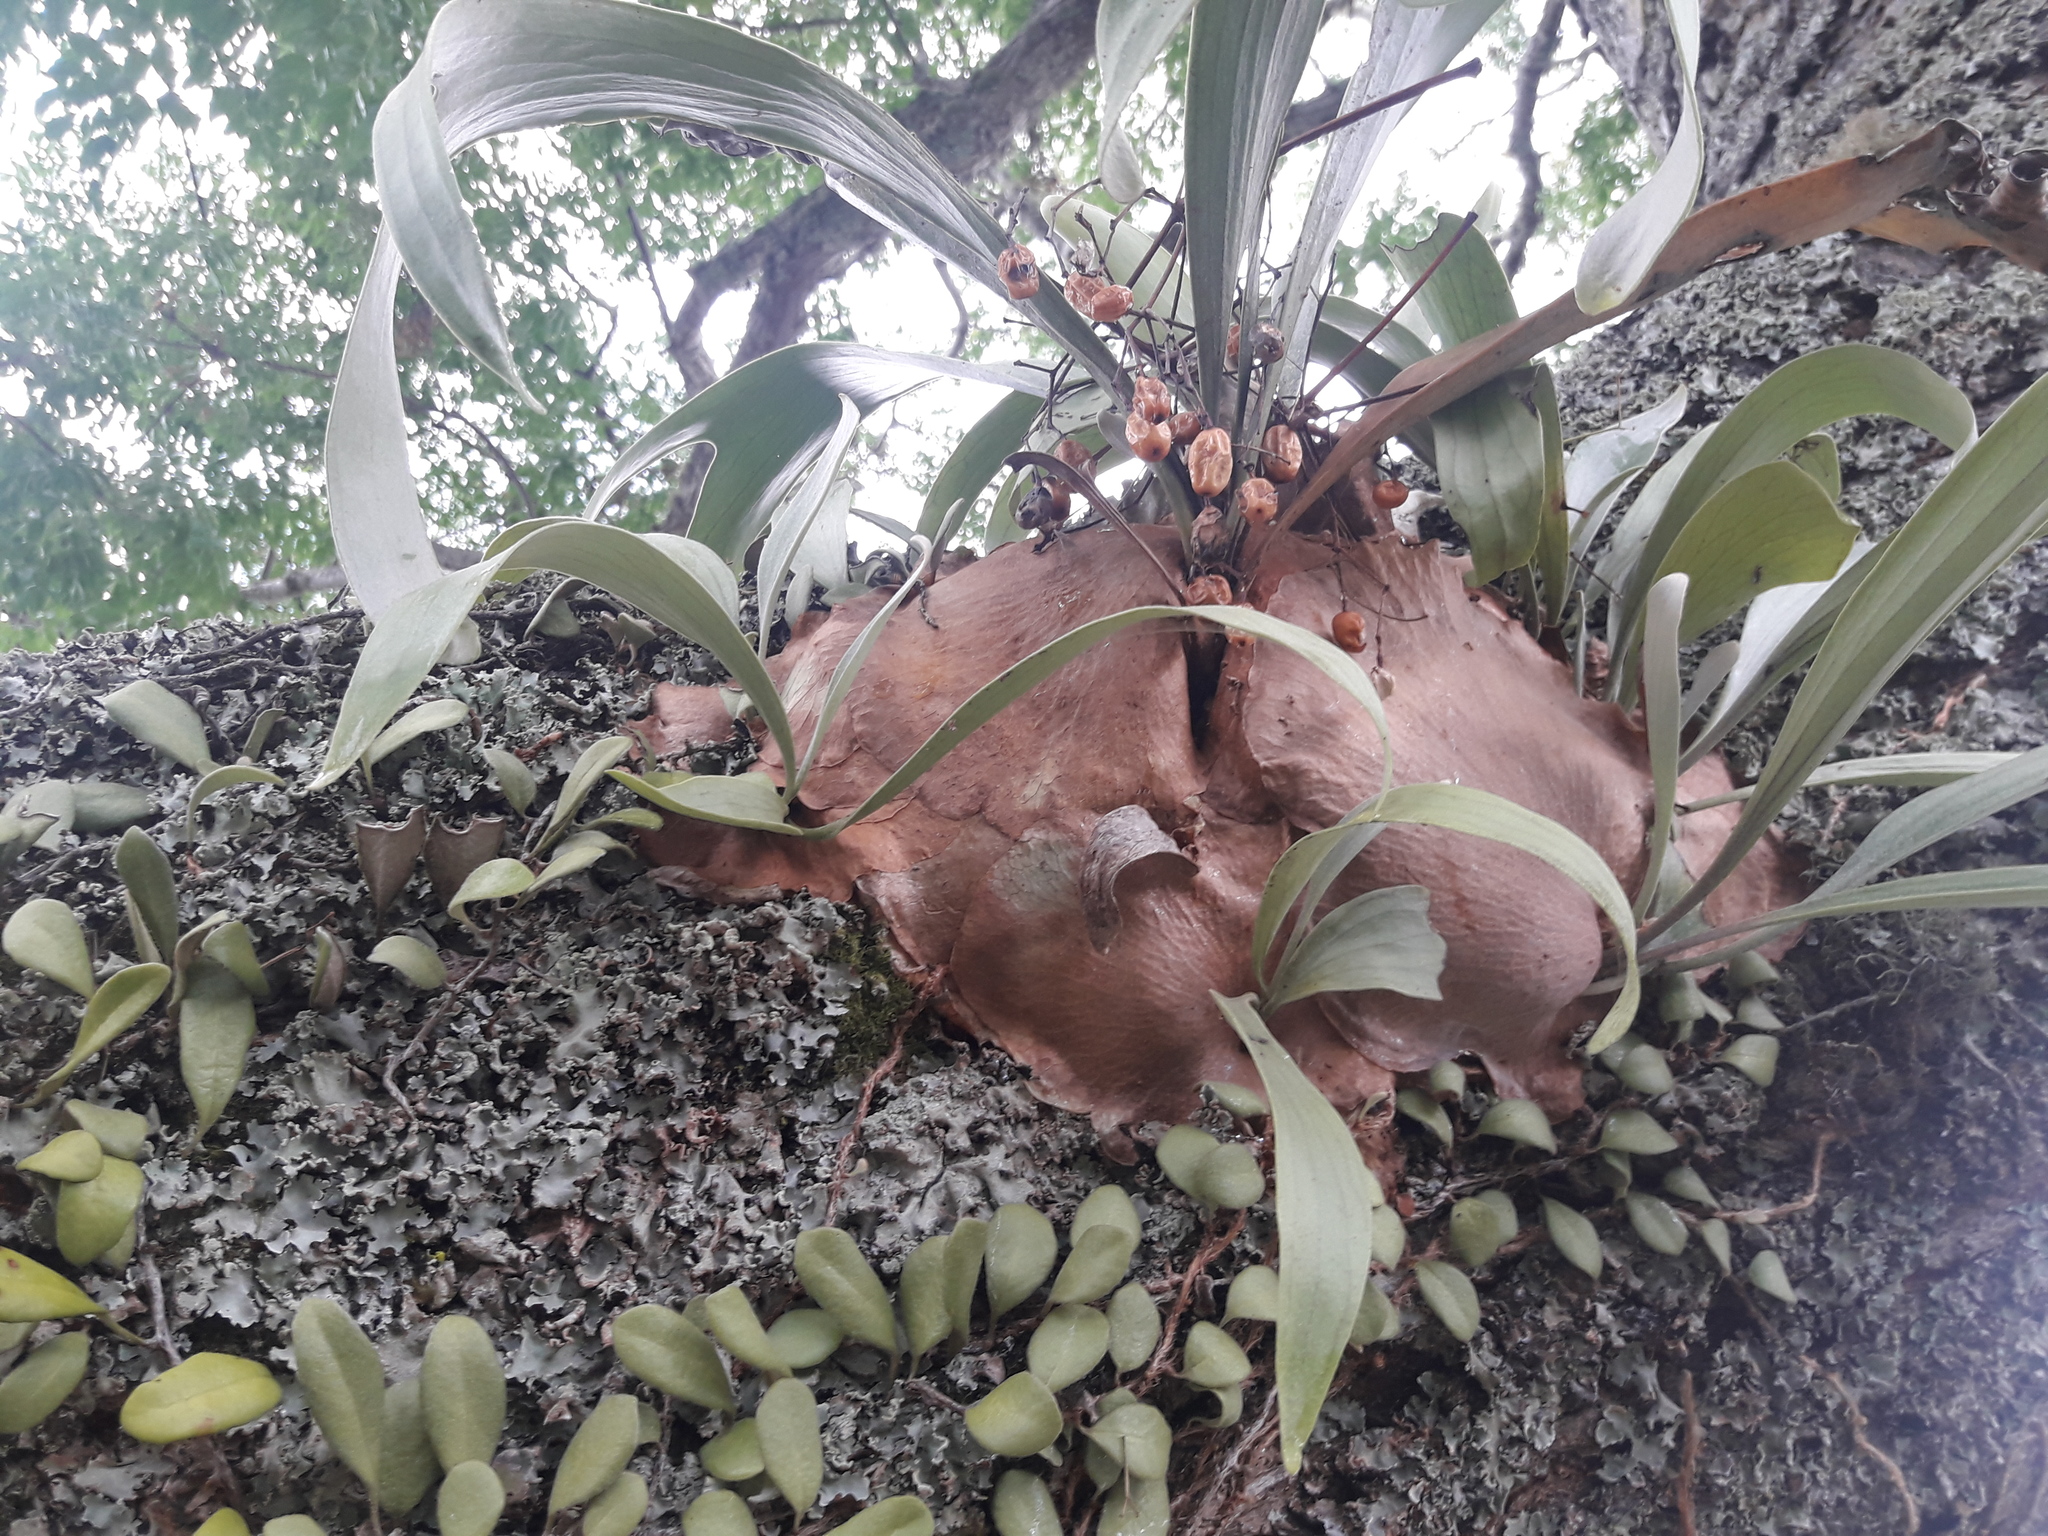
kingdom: Plantae
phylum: Tracheophyta
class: Polypodiopsida
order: Polypodiales
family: Polypodiaceae
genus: Platycerium
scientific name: Platycerium bifurcatum
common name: Elkhorn fern
